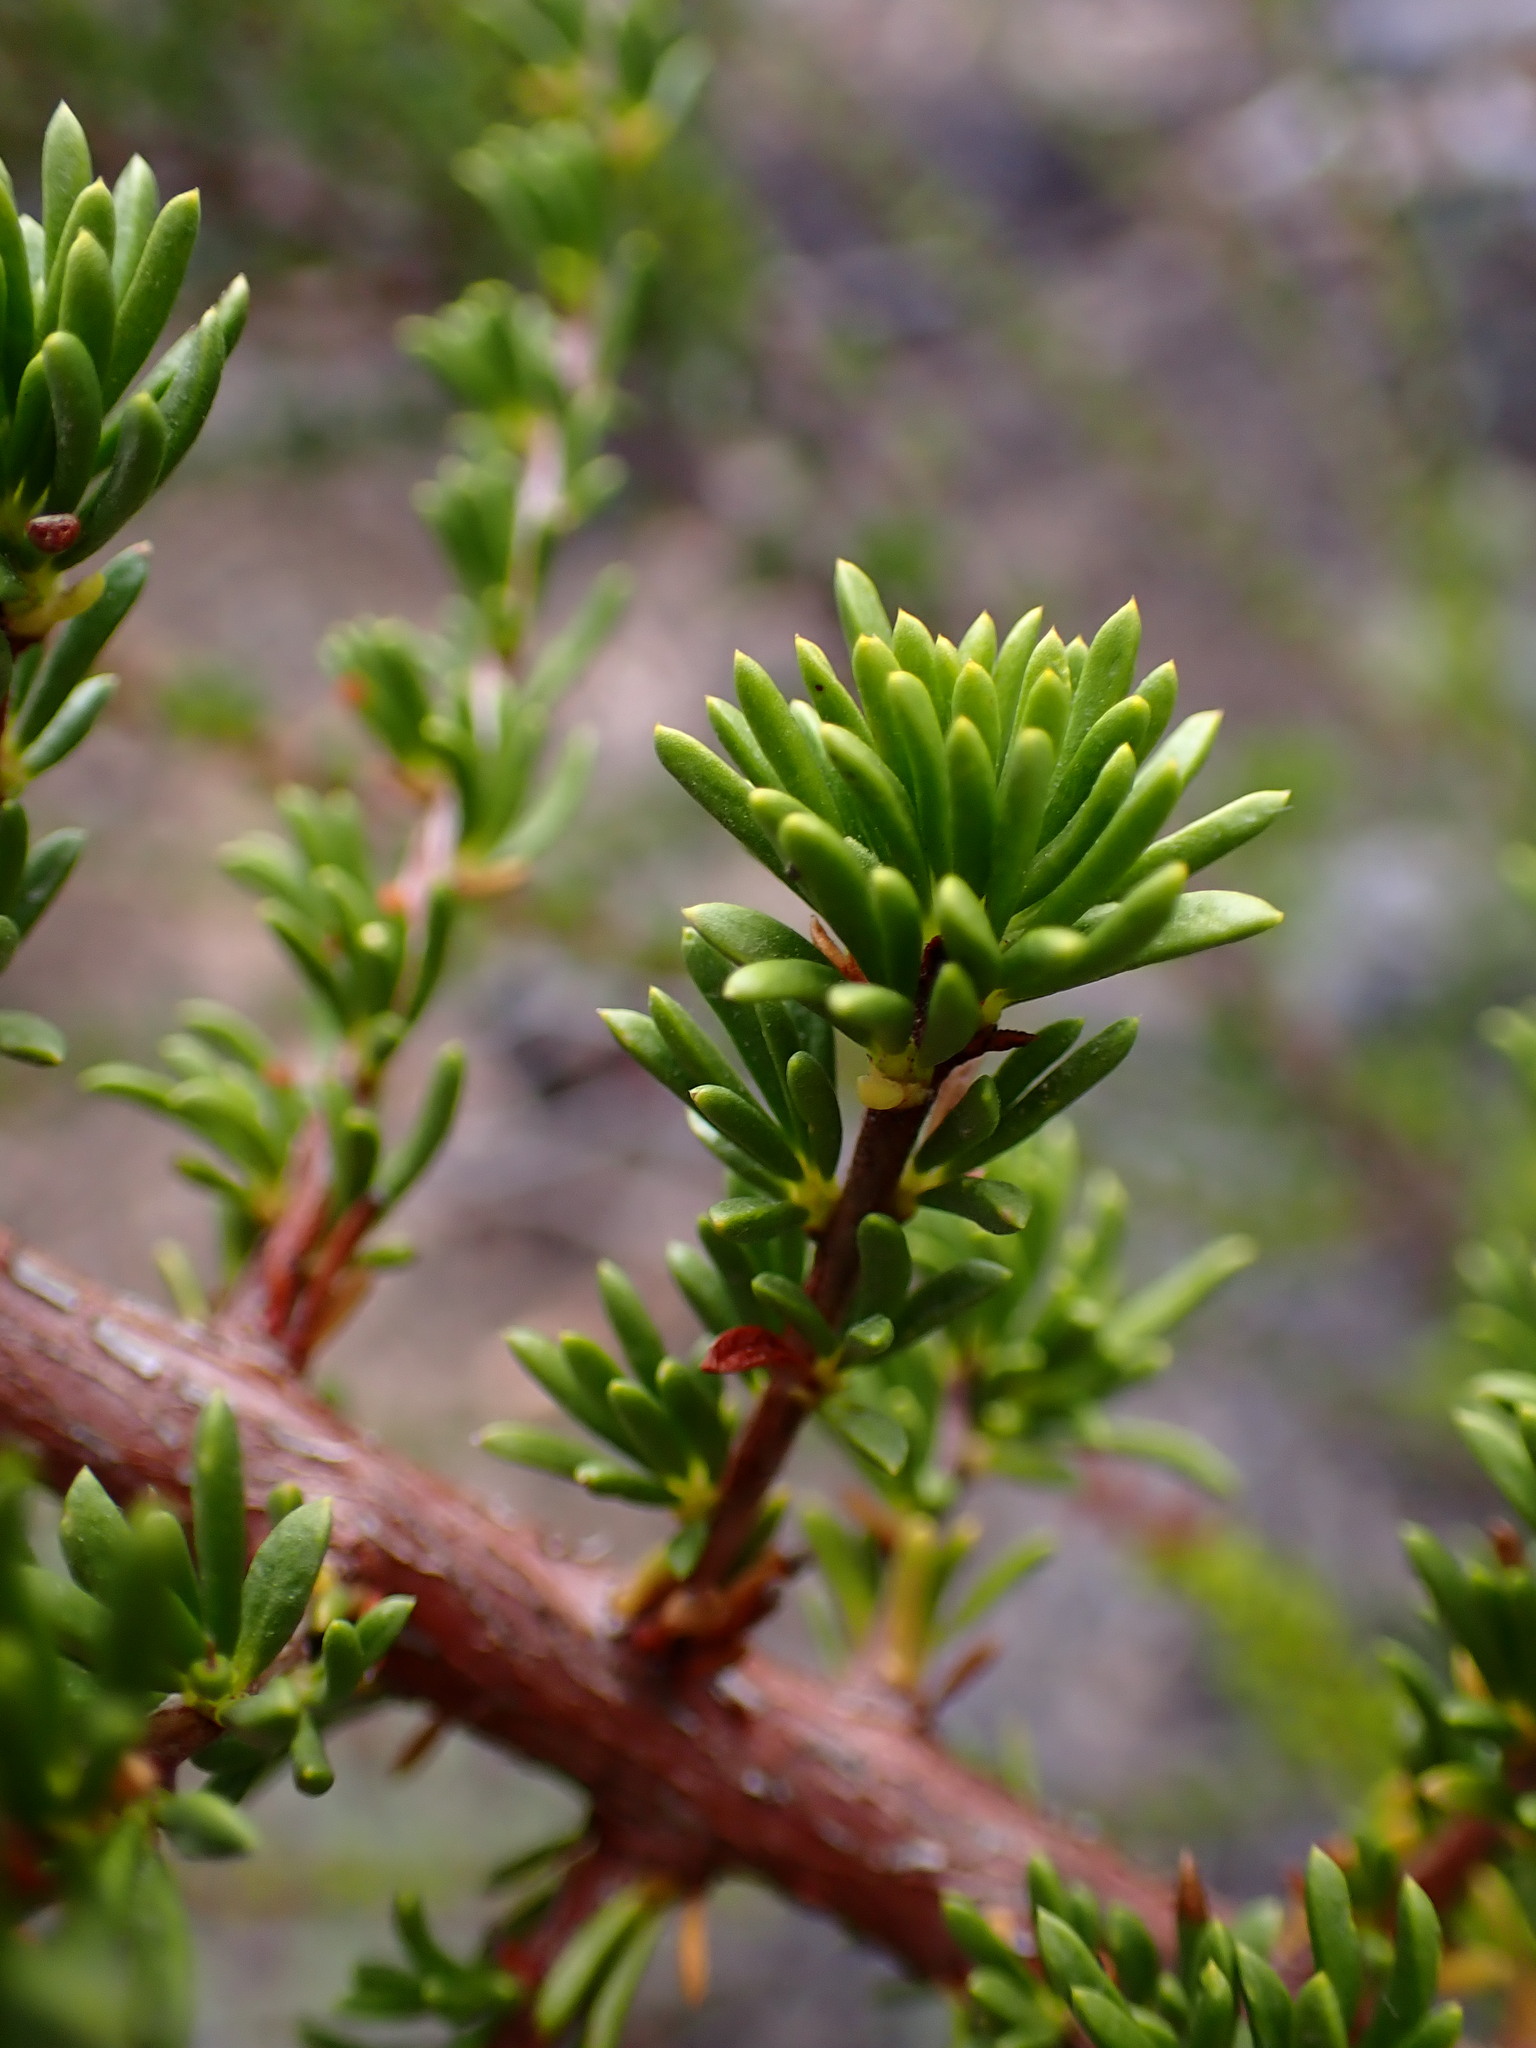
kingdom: Plantae
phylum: Tracheophyta
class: Magnoliopsida
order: Rosales
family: Rosaceae
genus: Adenostoma
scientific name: Adenostoma fasciculatum
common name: Chamise
